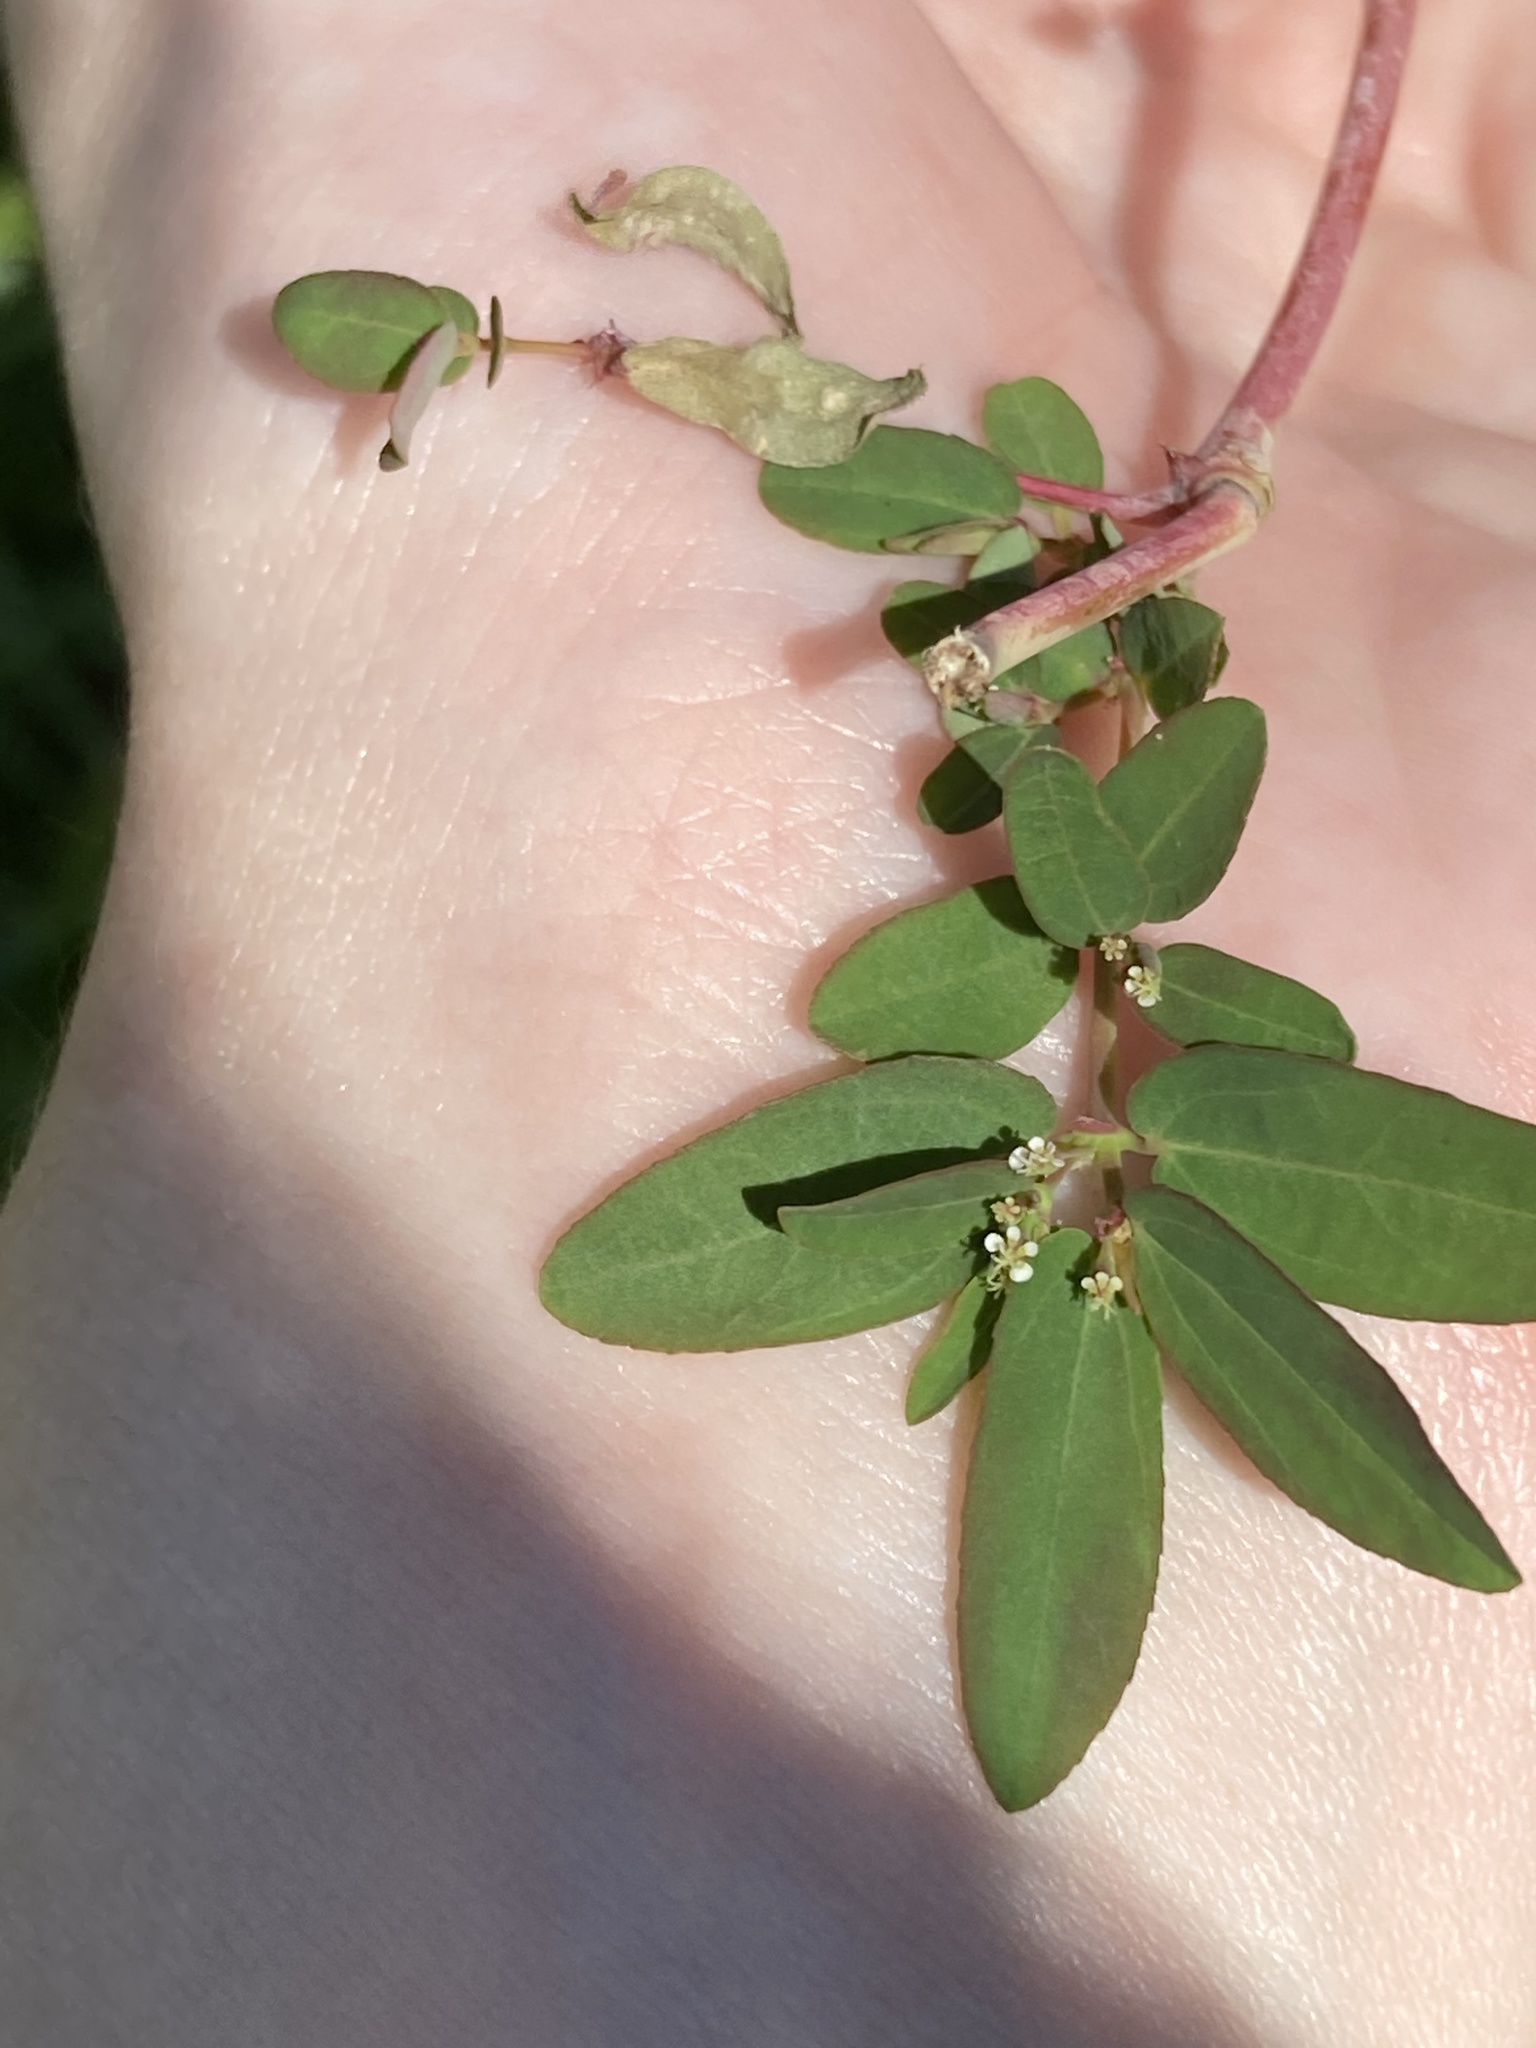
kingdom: Plantae
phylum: Tracheophyta
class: Magnoliopsida
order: Malpighiales
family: Euphorbiaceae
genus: Euphorbia
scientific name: Euphorbia hypericifolia
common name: Graceful sandmat
